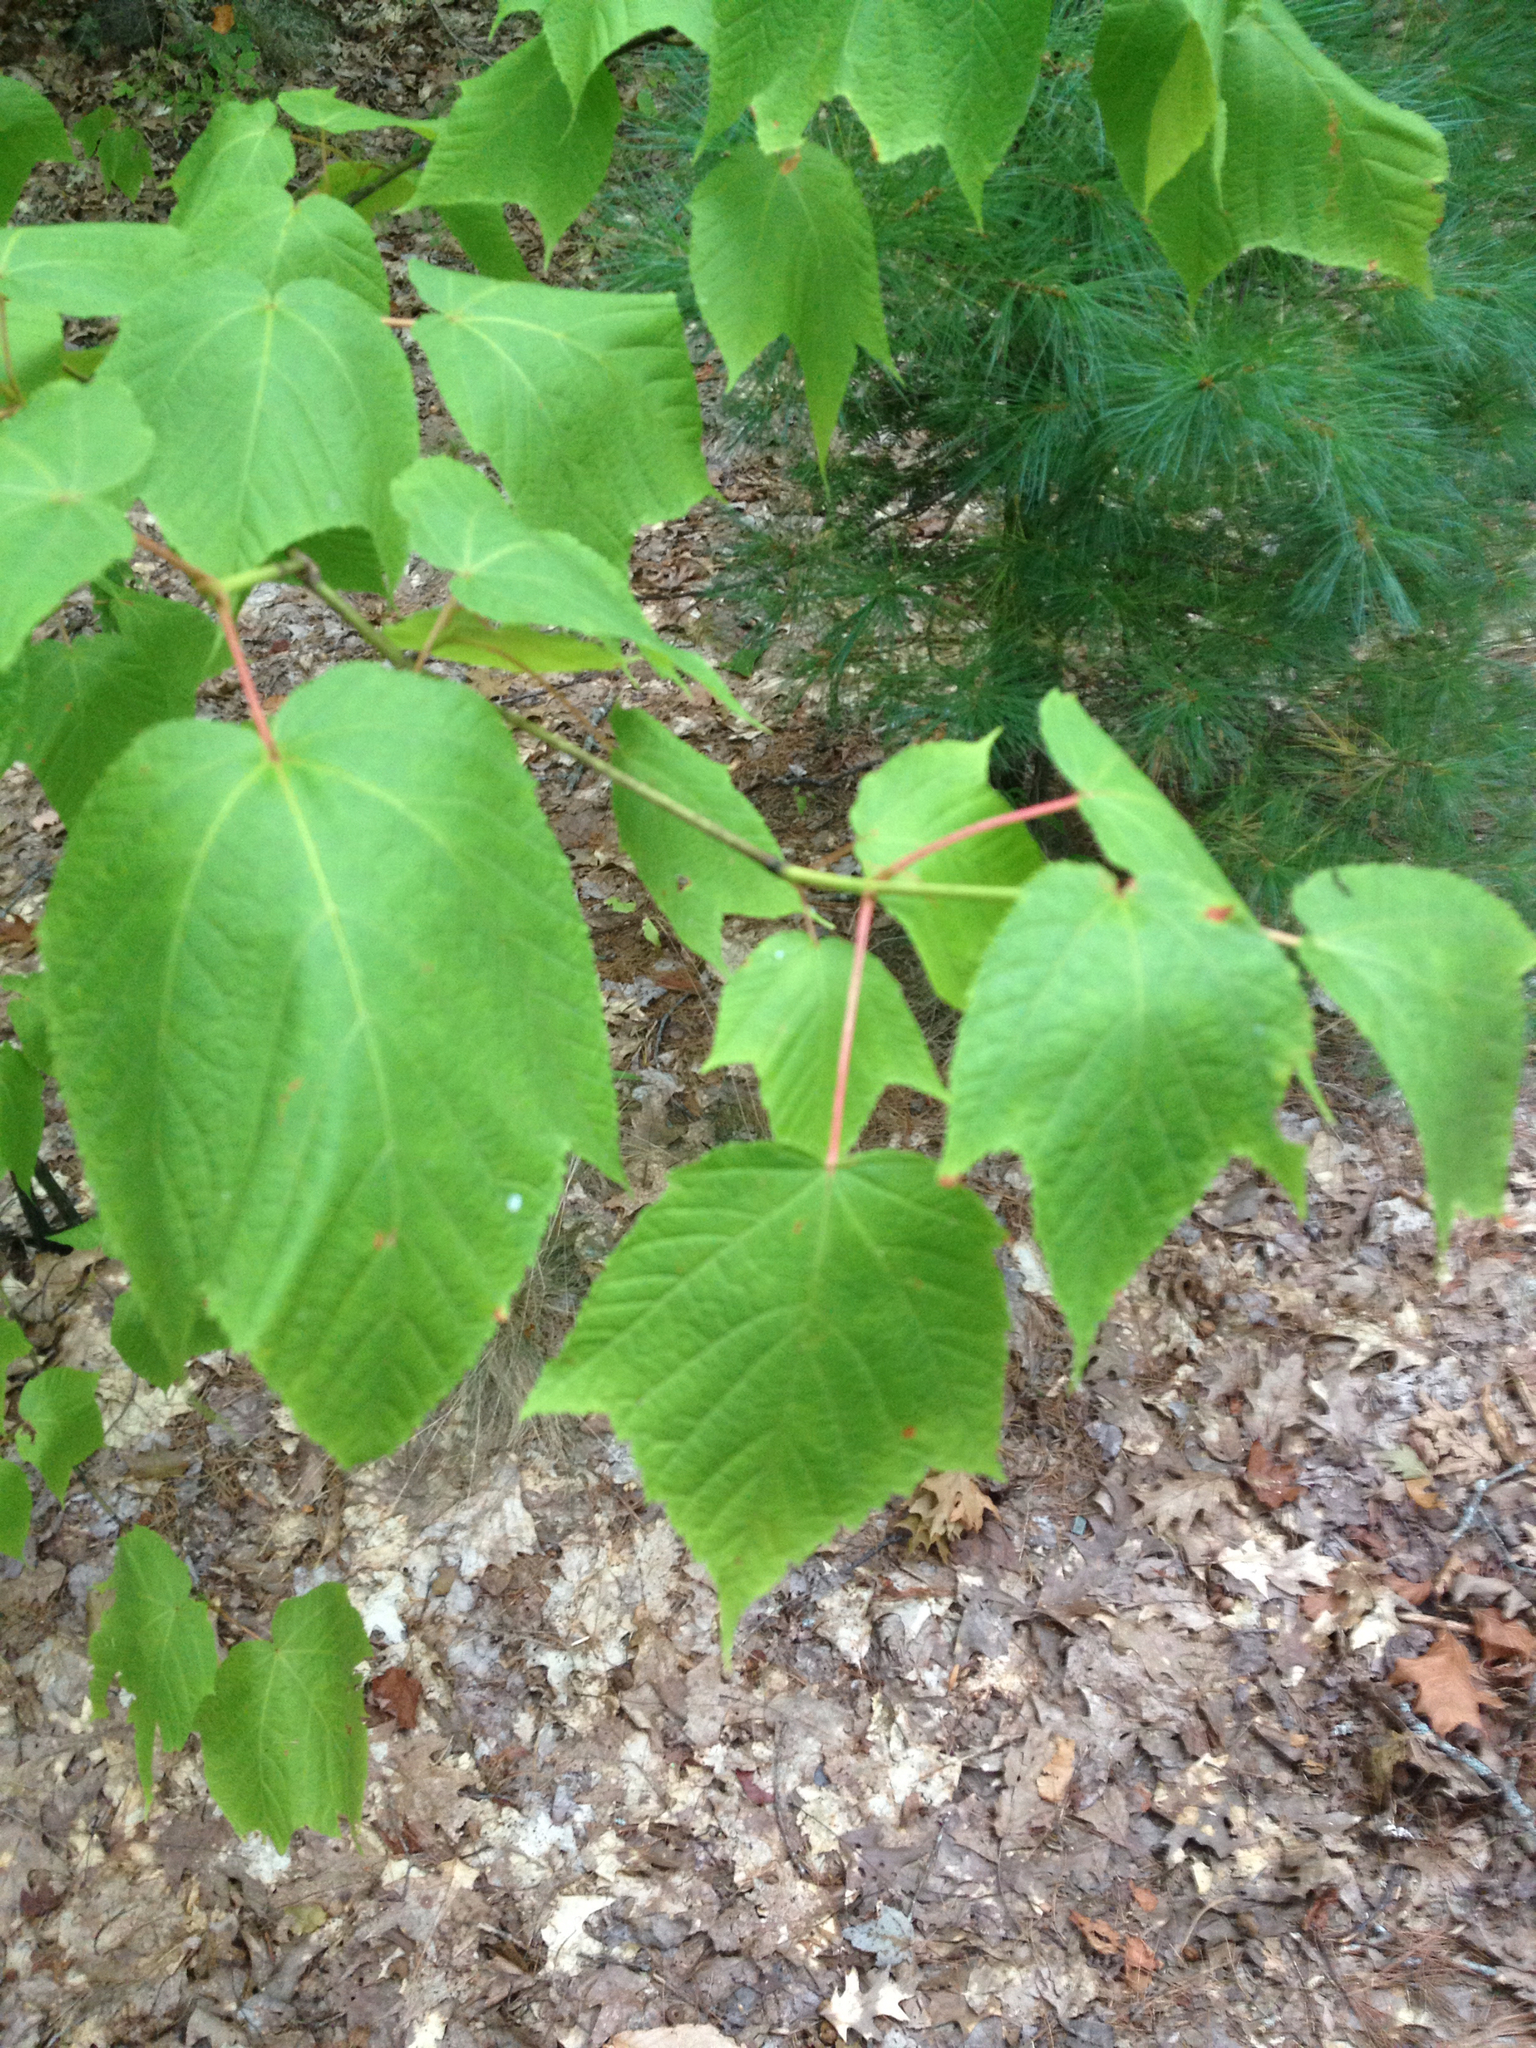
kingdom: Plantae
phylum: Tracheophyta
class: Magnoliopsida
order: Sapindales
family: Sapindaceae
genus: Acer
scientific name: Acer pensylvanicum
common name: Moosewood
